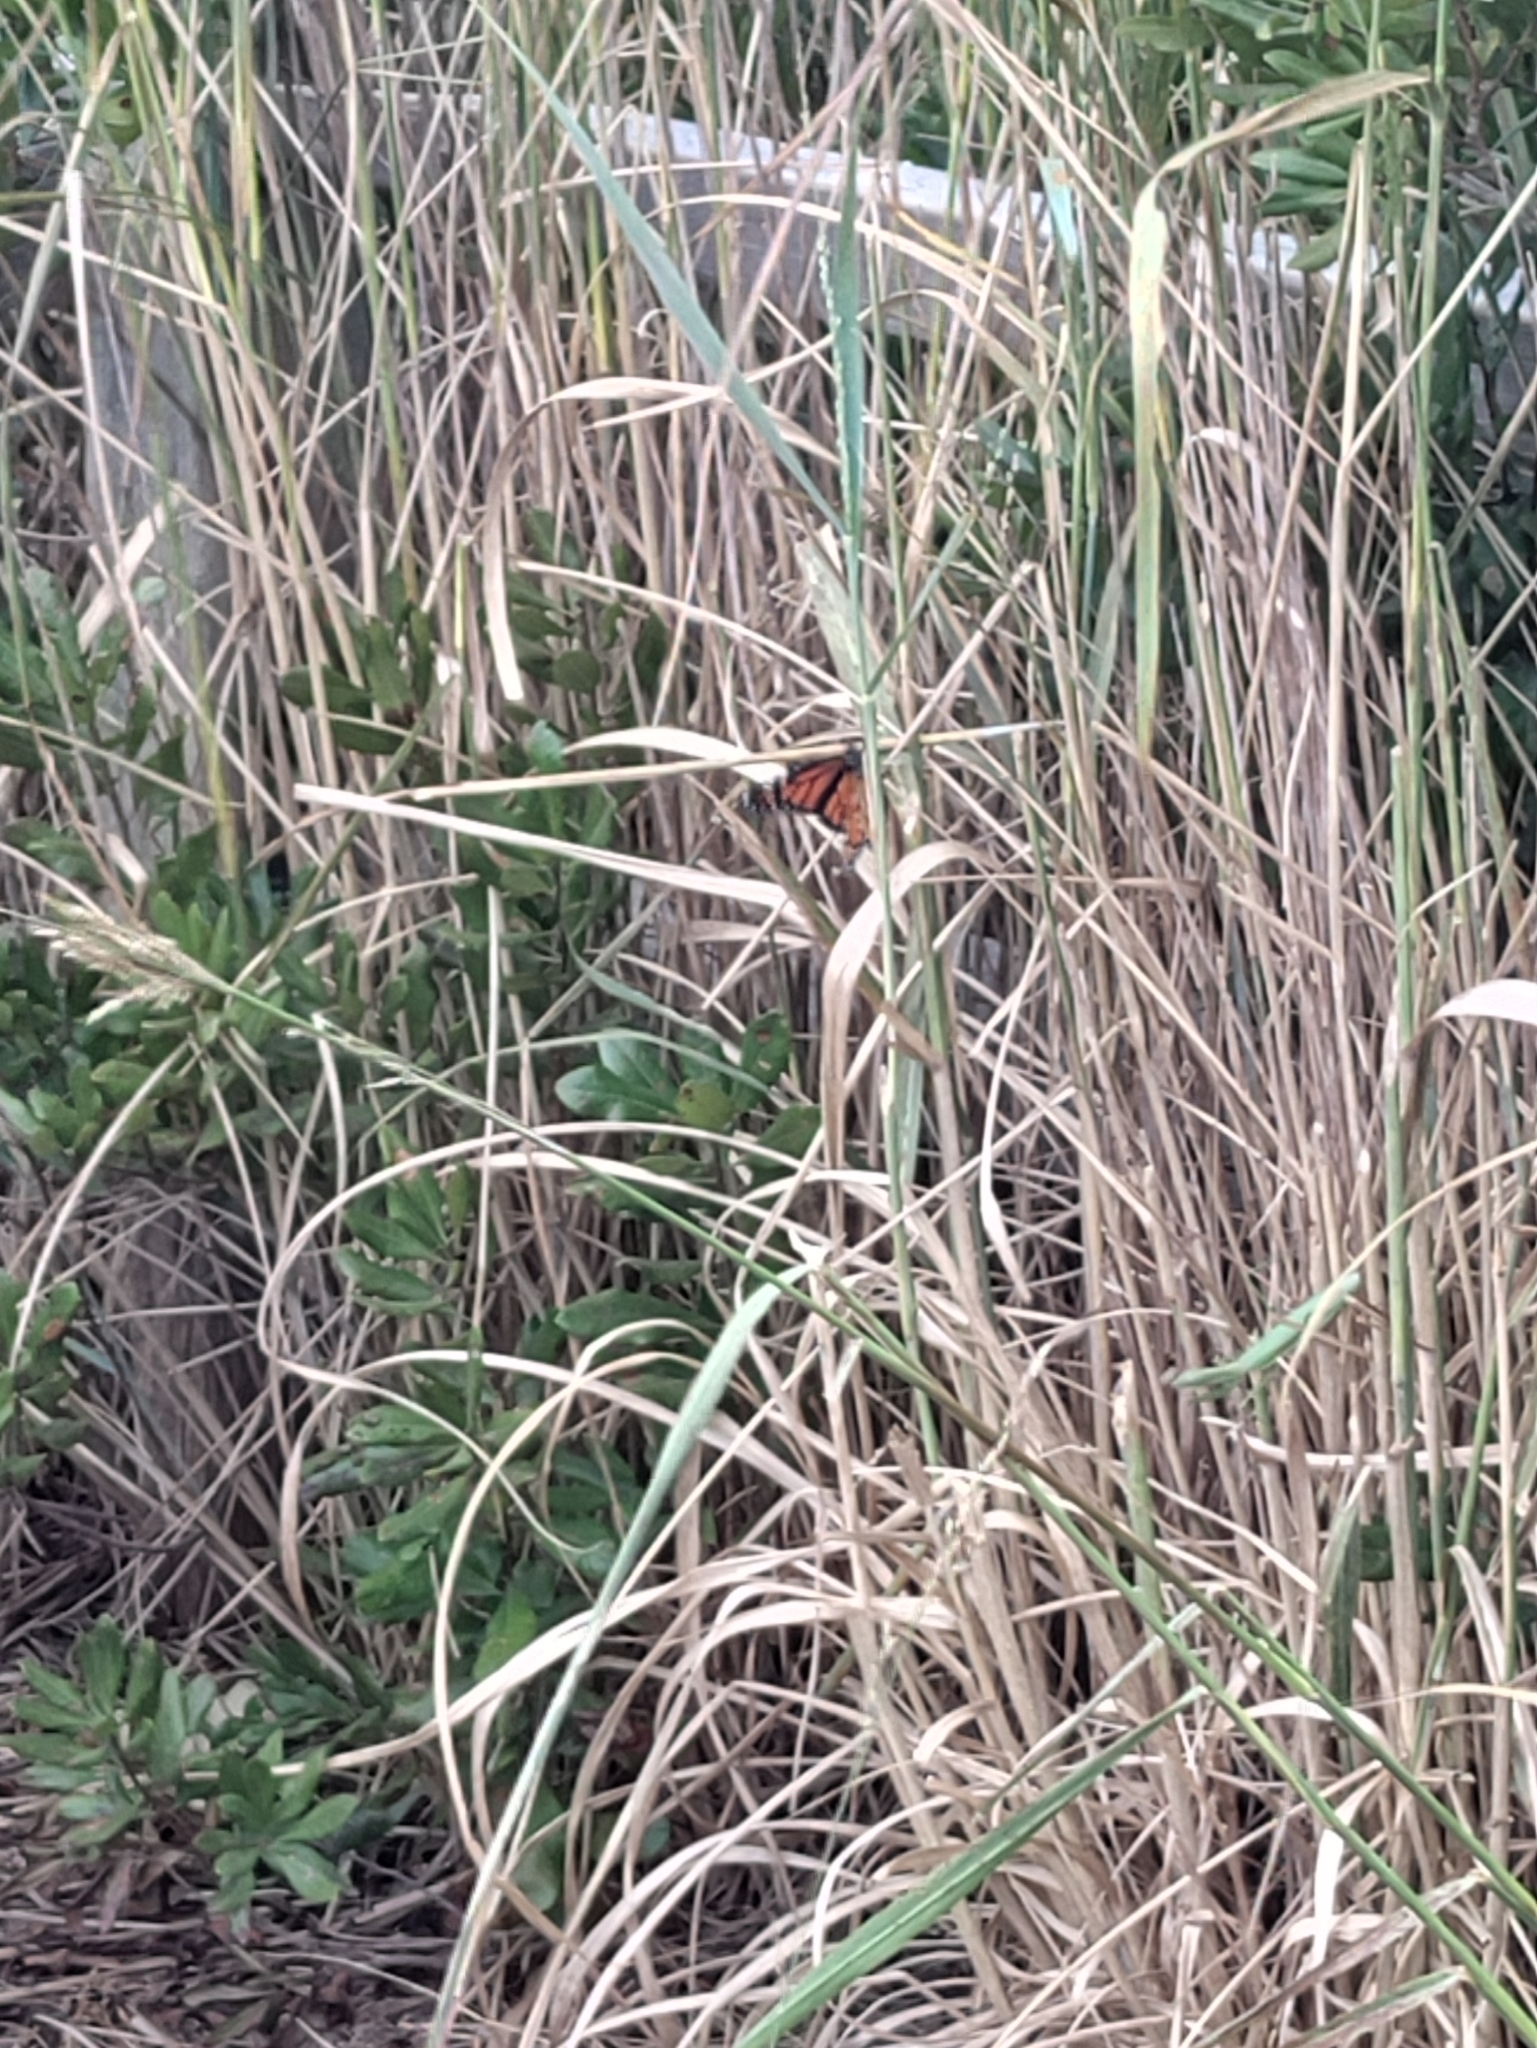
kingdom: Animalia
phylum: Arthropoda
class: Insecta
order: Lepidoptera
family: Nymphalidae
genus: Danaus
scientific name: Danaus plexippus
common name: Monarch
